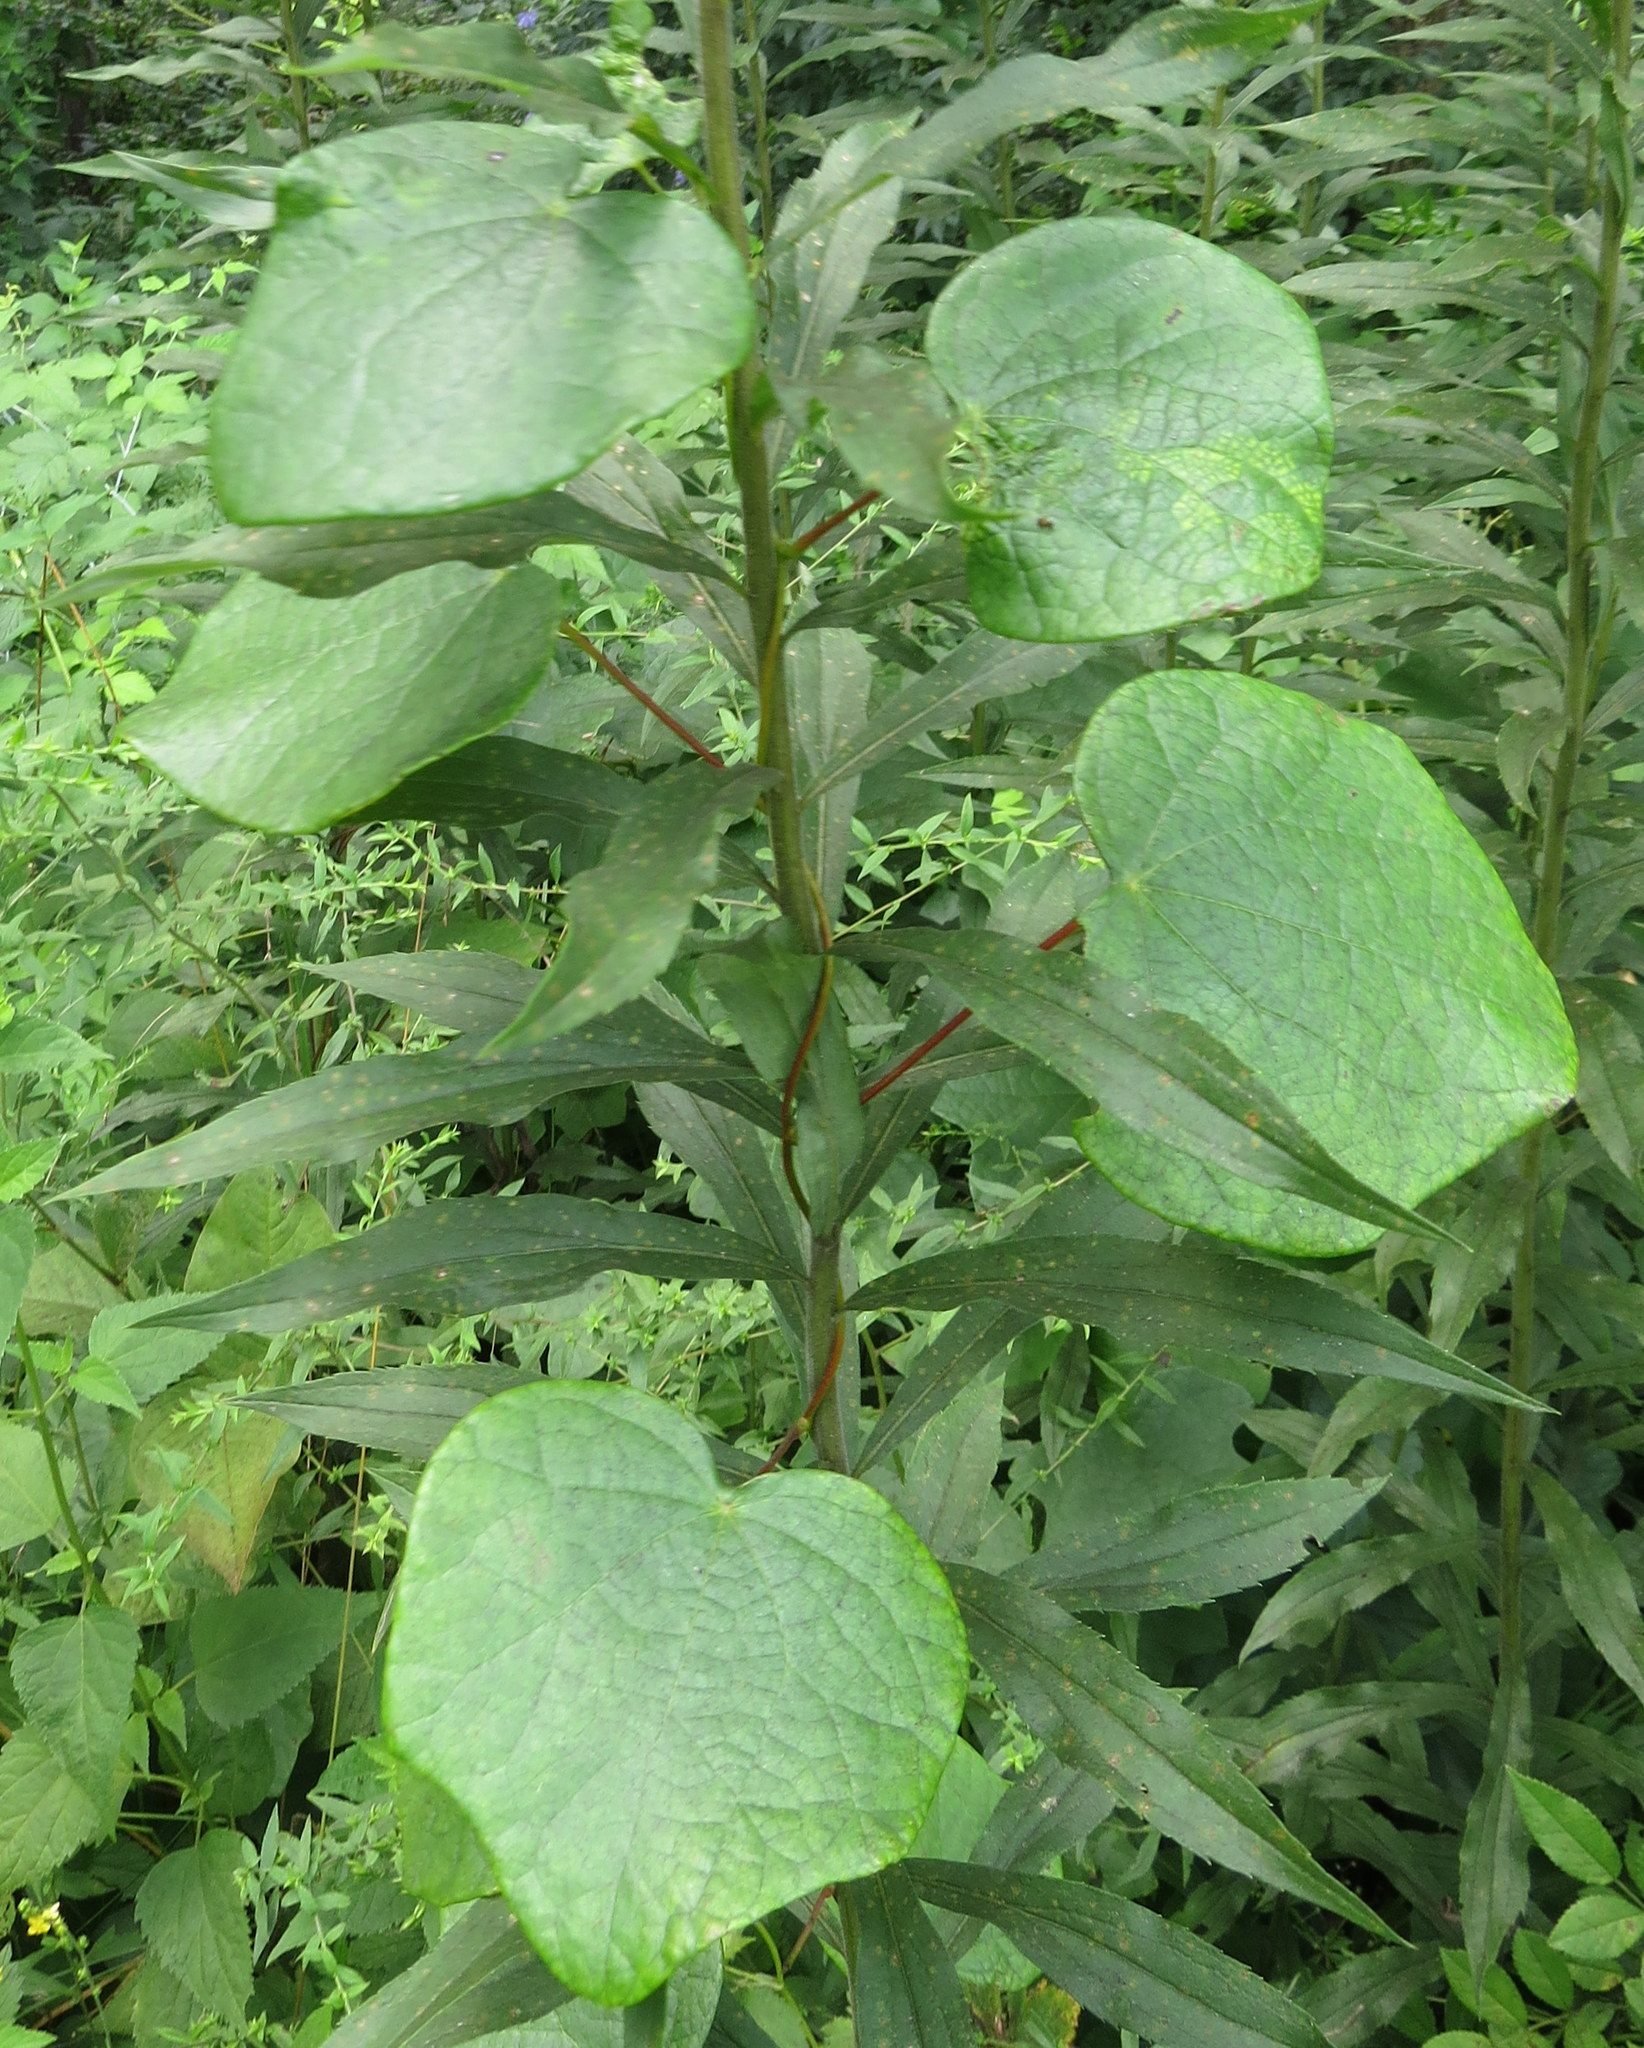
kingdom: Plantae
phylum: Tracheophyta
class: Magnoliopsida
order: Ranunculales
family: Menispermaceae
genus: Menispermum
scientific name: Menispermum canadense
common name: Moonseed
